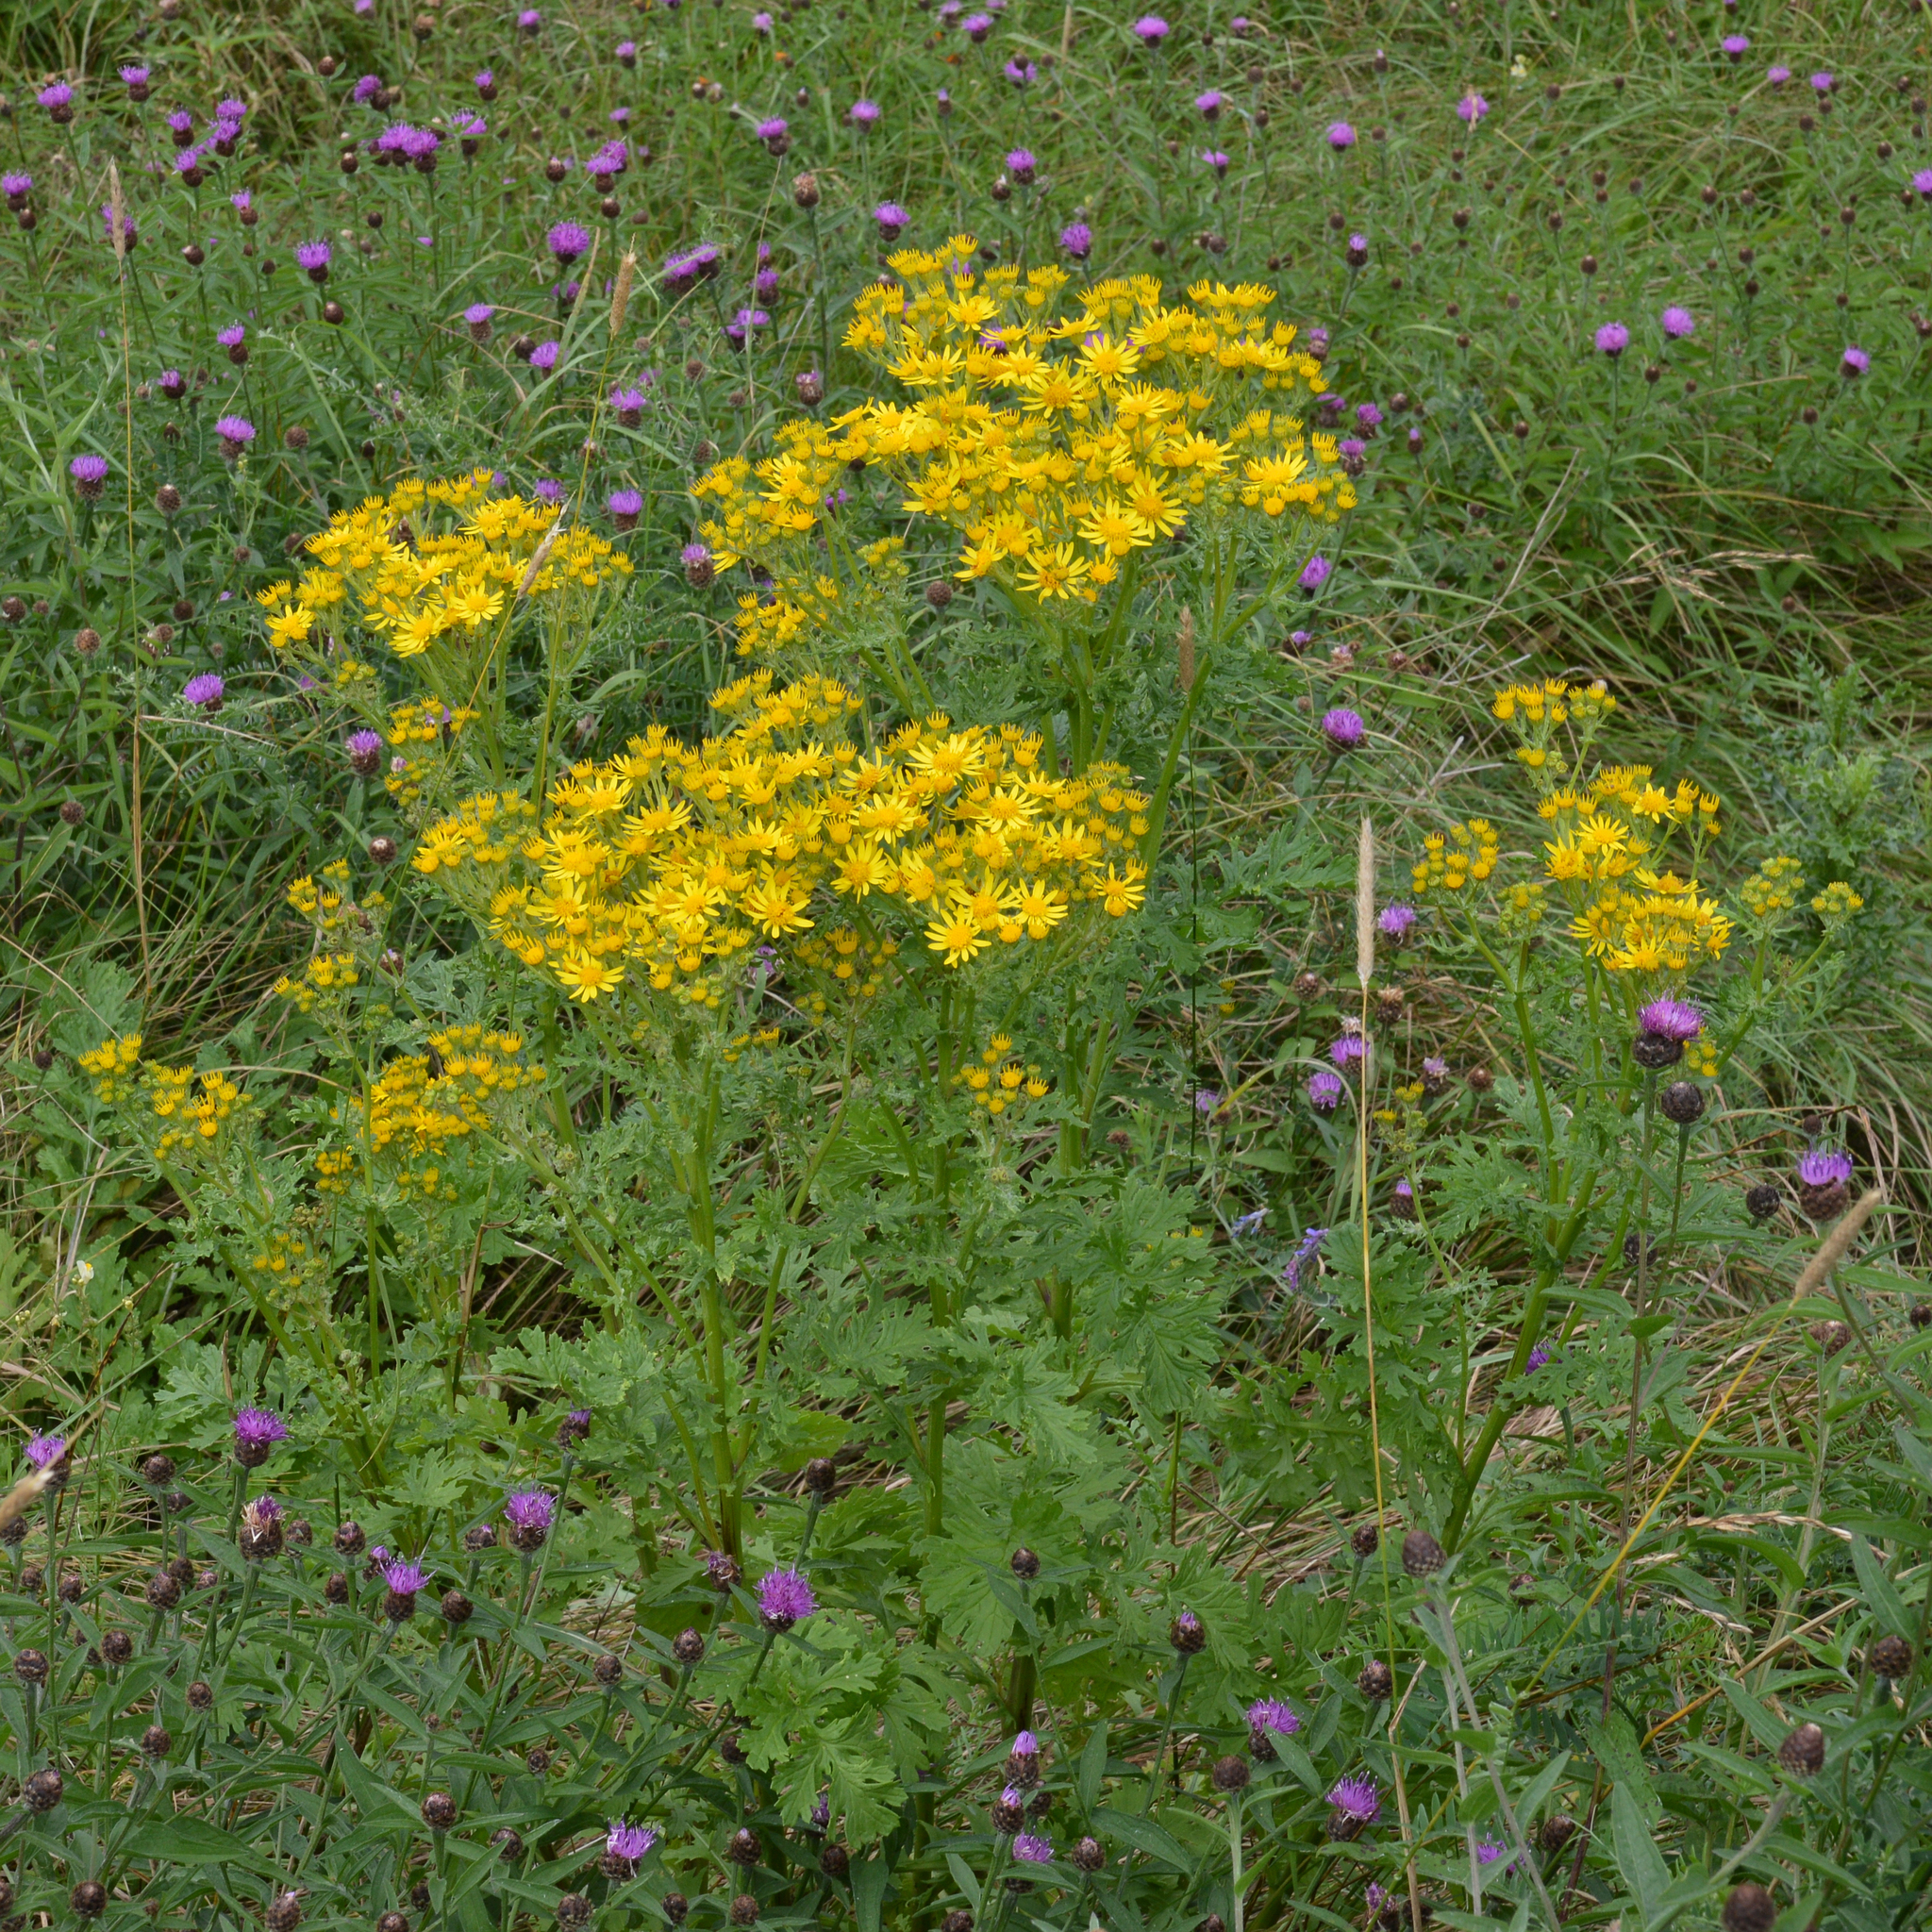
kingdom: Plantae
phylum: Tracheophyta
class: Magnoliopsida
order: Asterales
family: Asteraceae
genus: Jacobaea
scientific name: Jacobaea vulgaris
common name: Stinking willie
